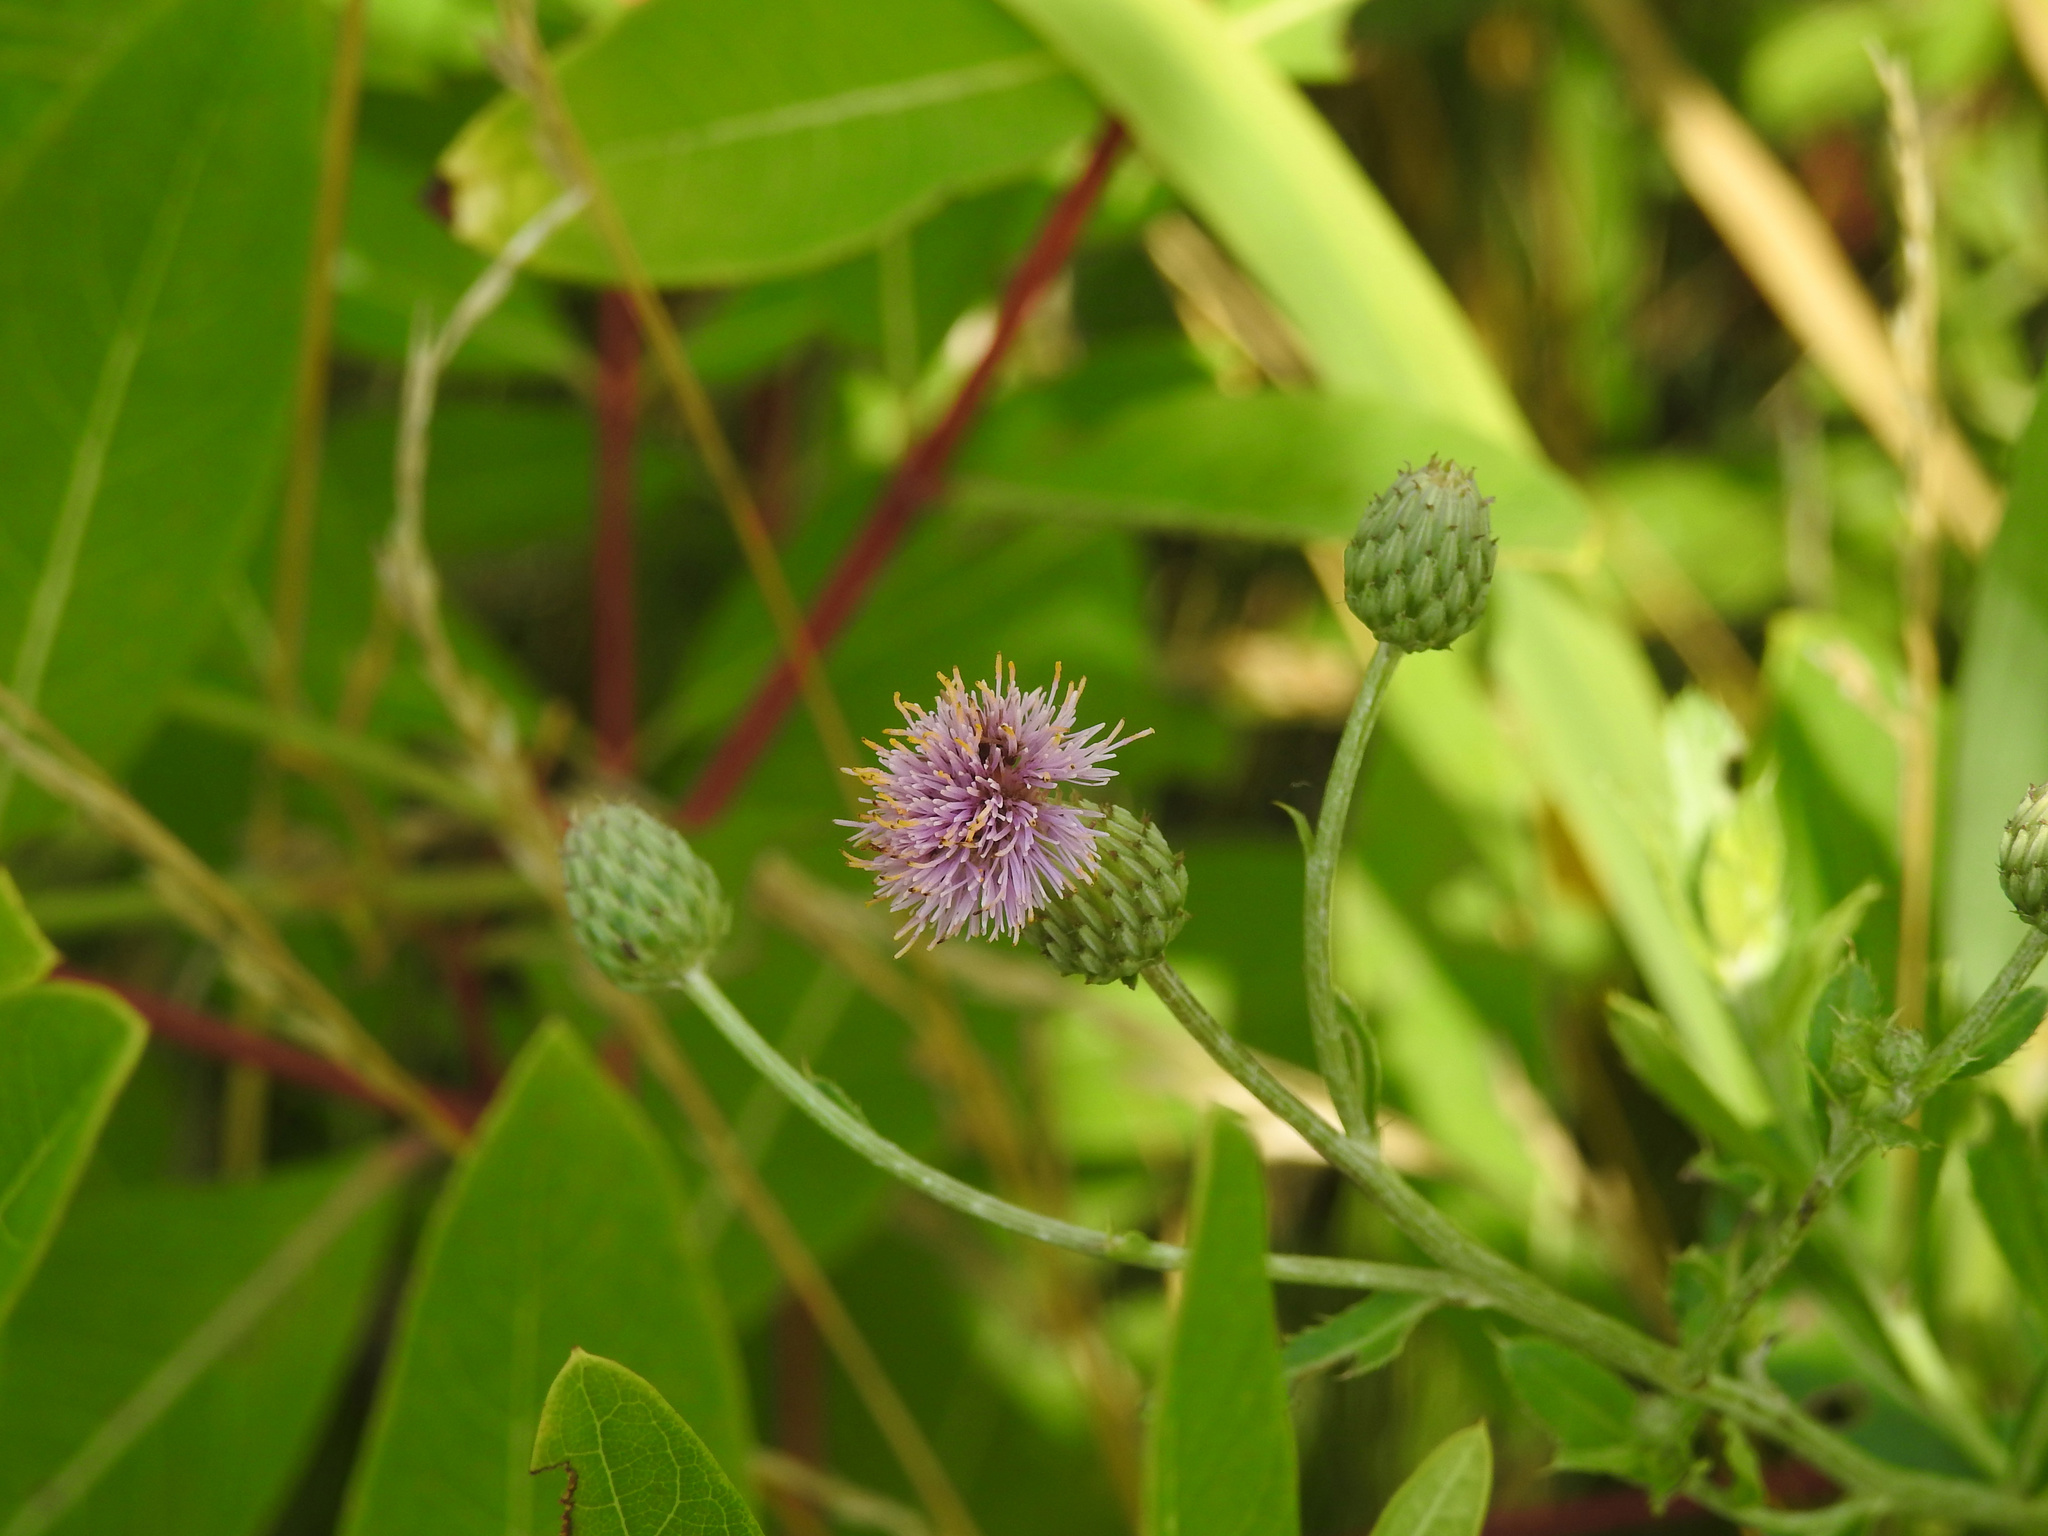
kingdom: Plantae
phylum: Tracheophyta
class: Magnoliopsida
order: Asterales
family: Asteraceae
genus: Cirsium
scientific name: Cirsium arvense
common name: Creeping thistle
